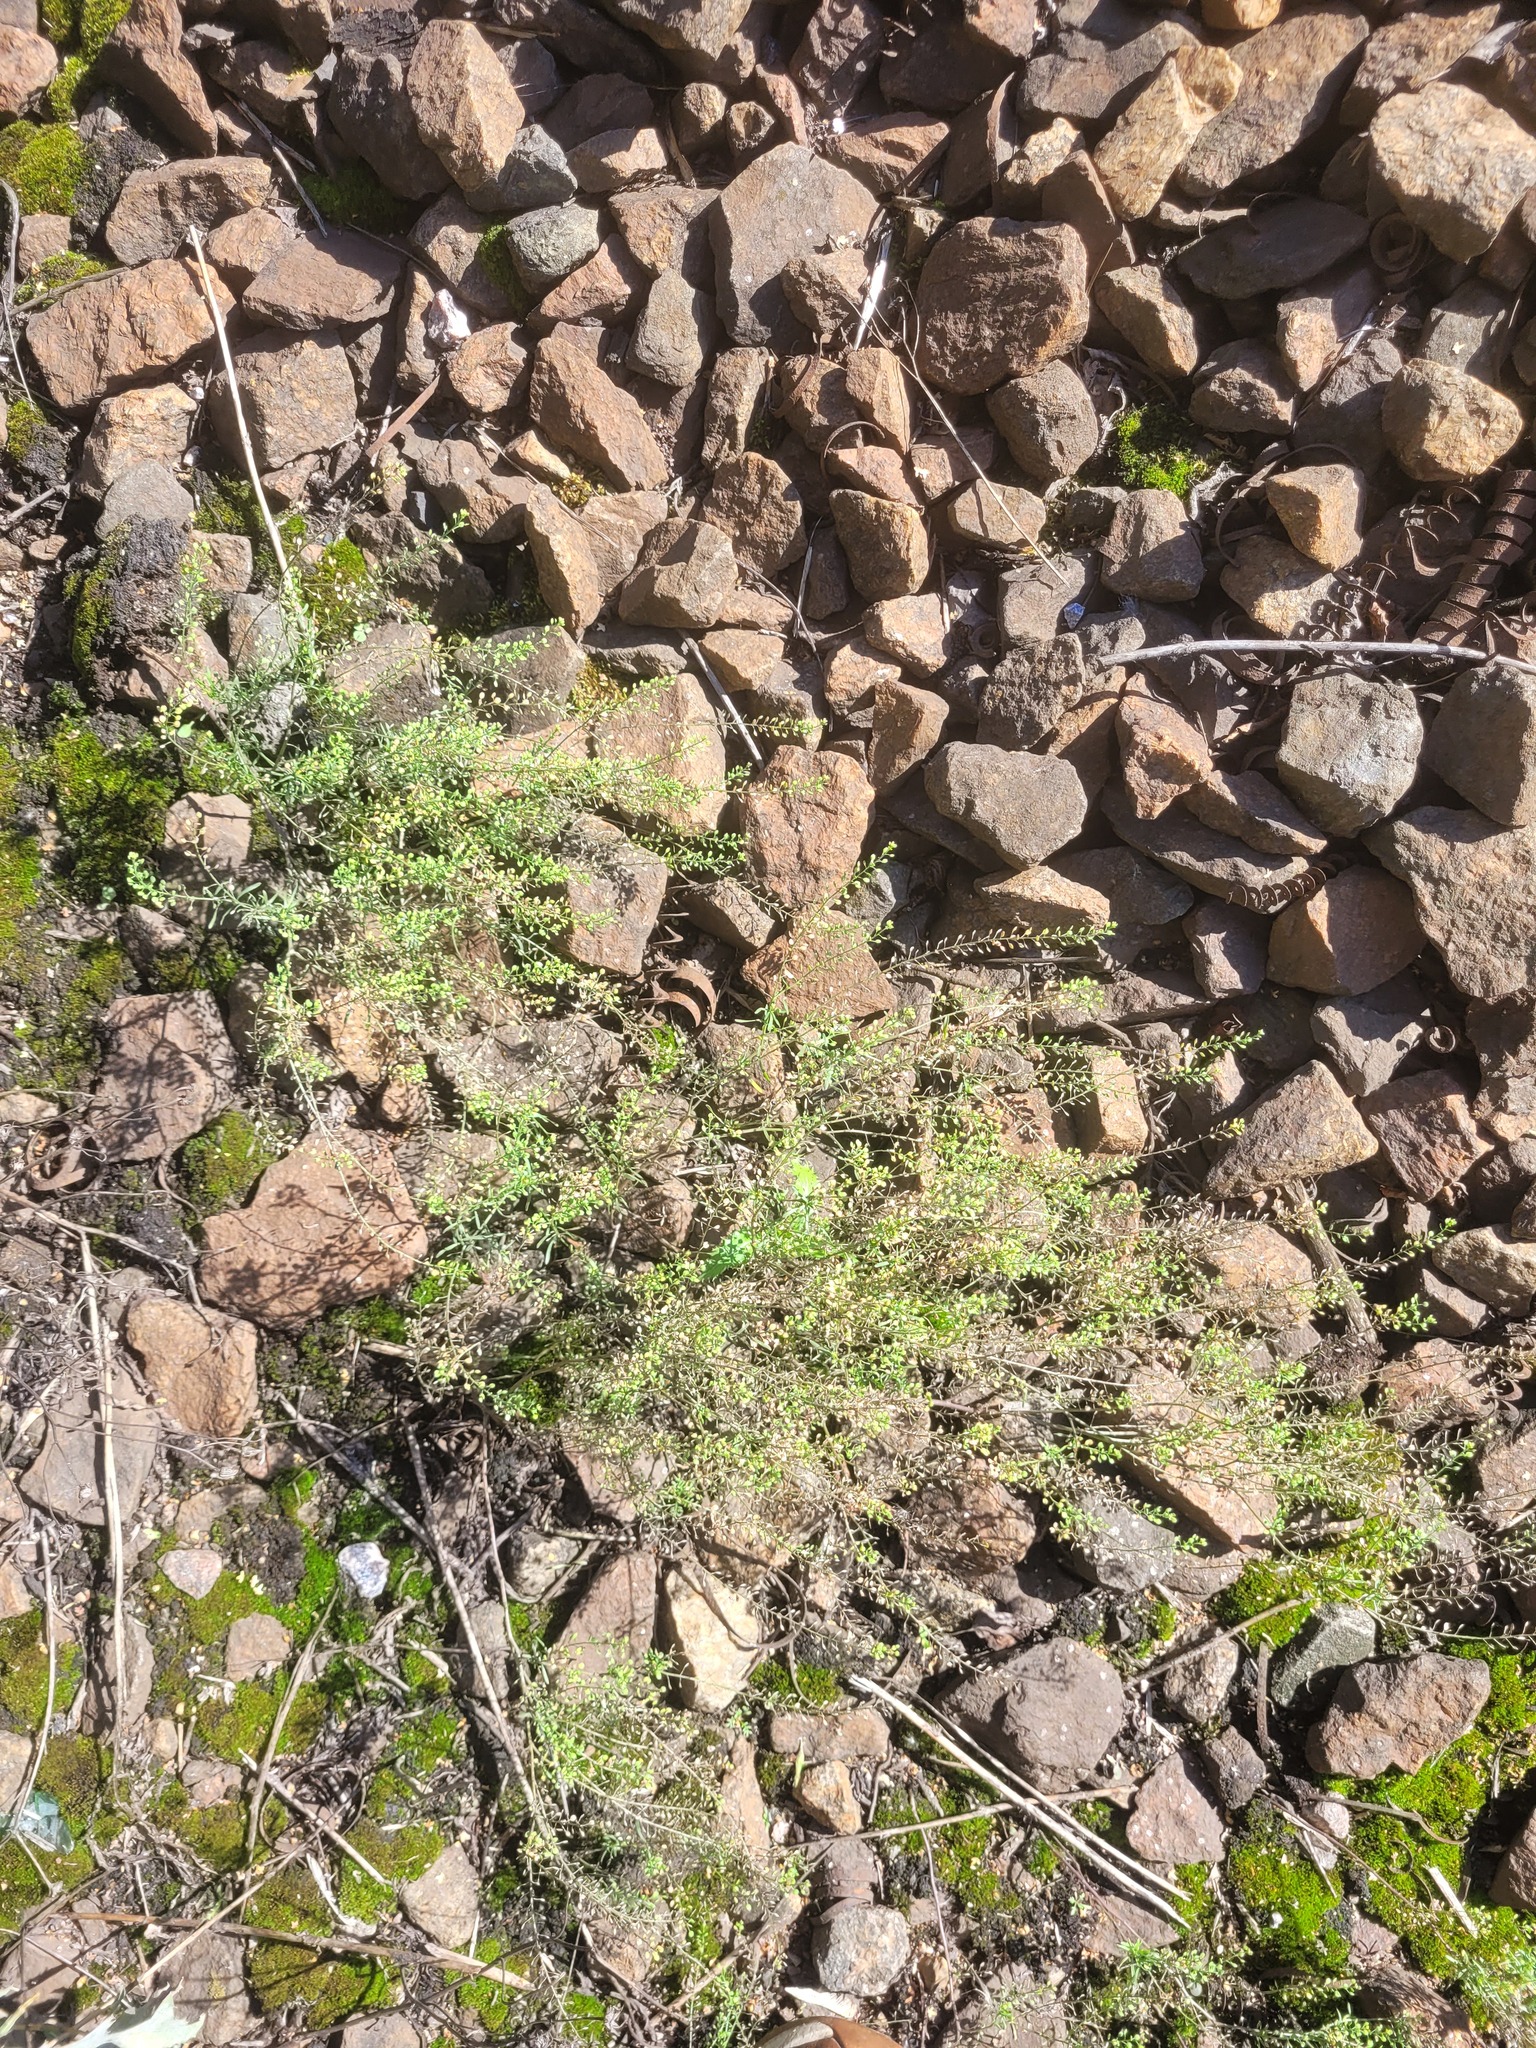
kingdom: Plantae
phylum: Tracheophyta
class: Magnoliopsida
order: Brassicales
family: Brassicaceae
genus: Lepidium
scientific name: Lepidium ruderale
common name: Narrow-leaved pepperwort
